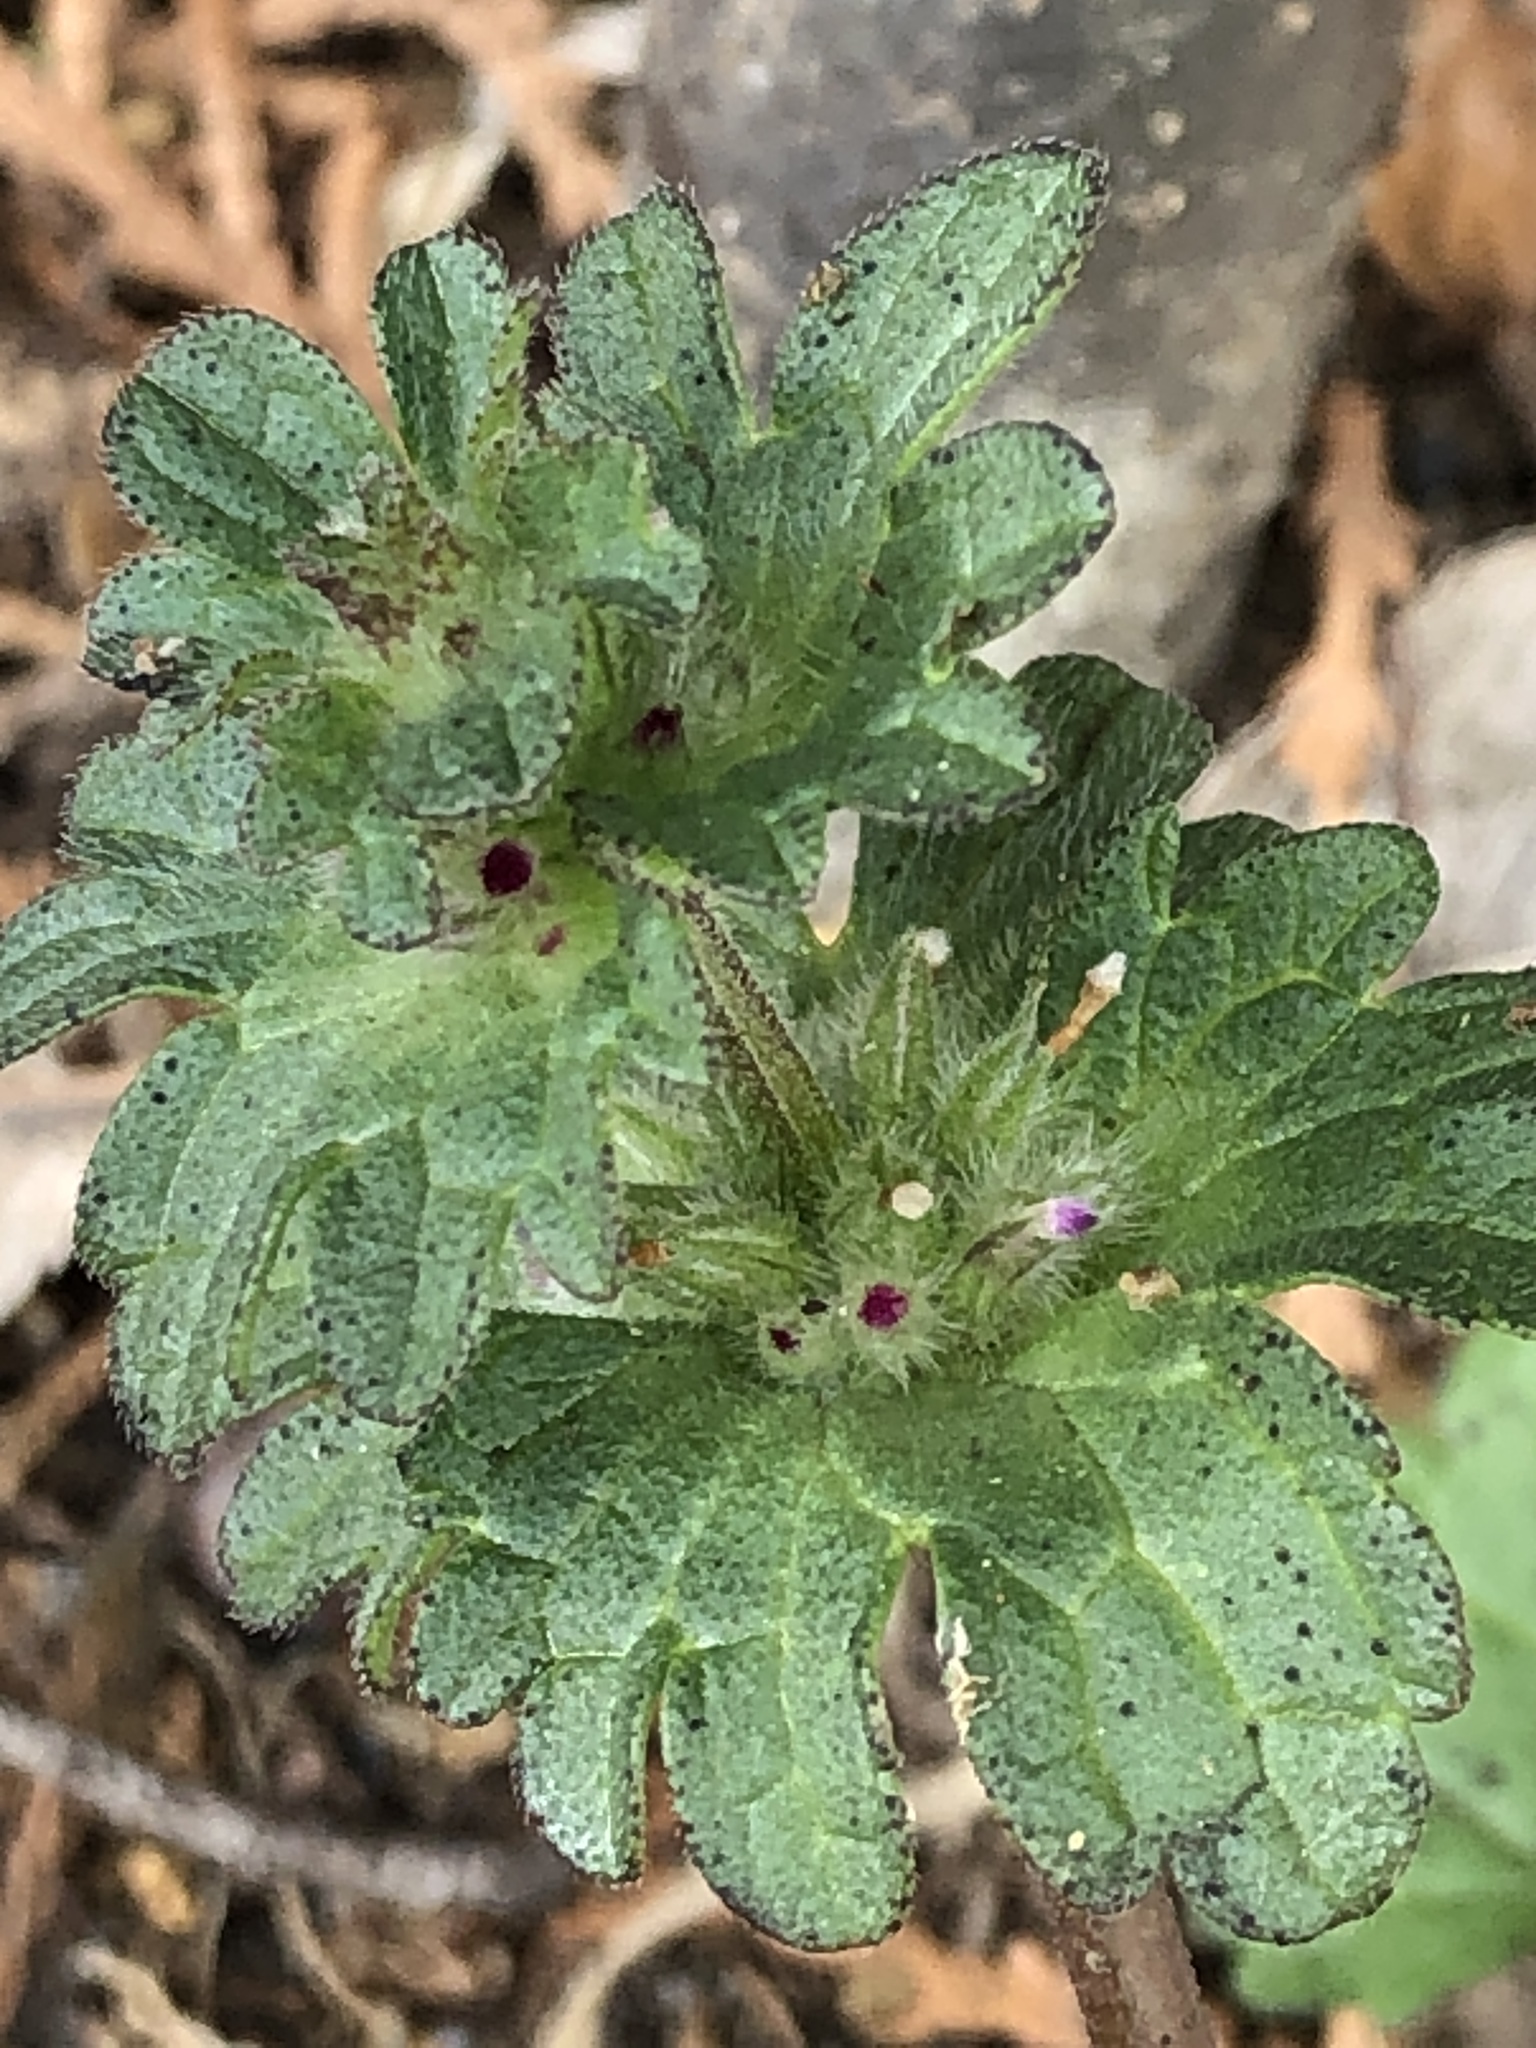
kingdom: Plantae
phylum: Tracheophyta
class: Magnoliopsida
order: Lamiales
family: Lamiaceae
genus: Lamium
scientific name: Lamium amplexicaule
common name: Henbit dead-nettle
